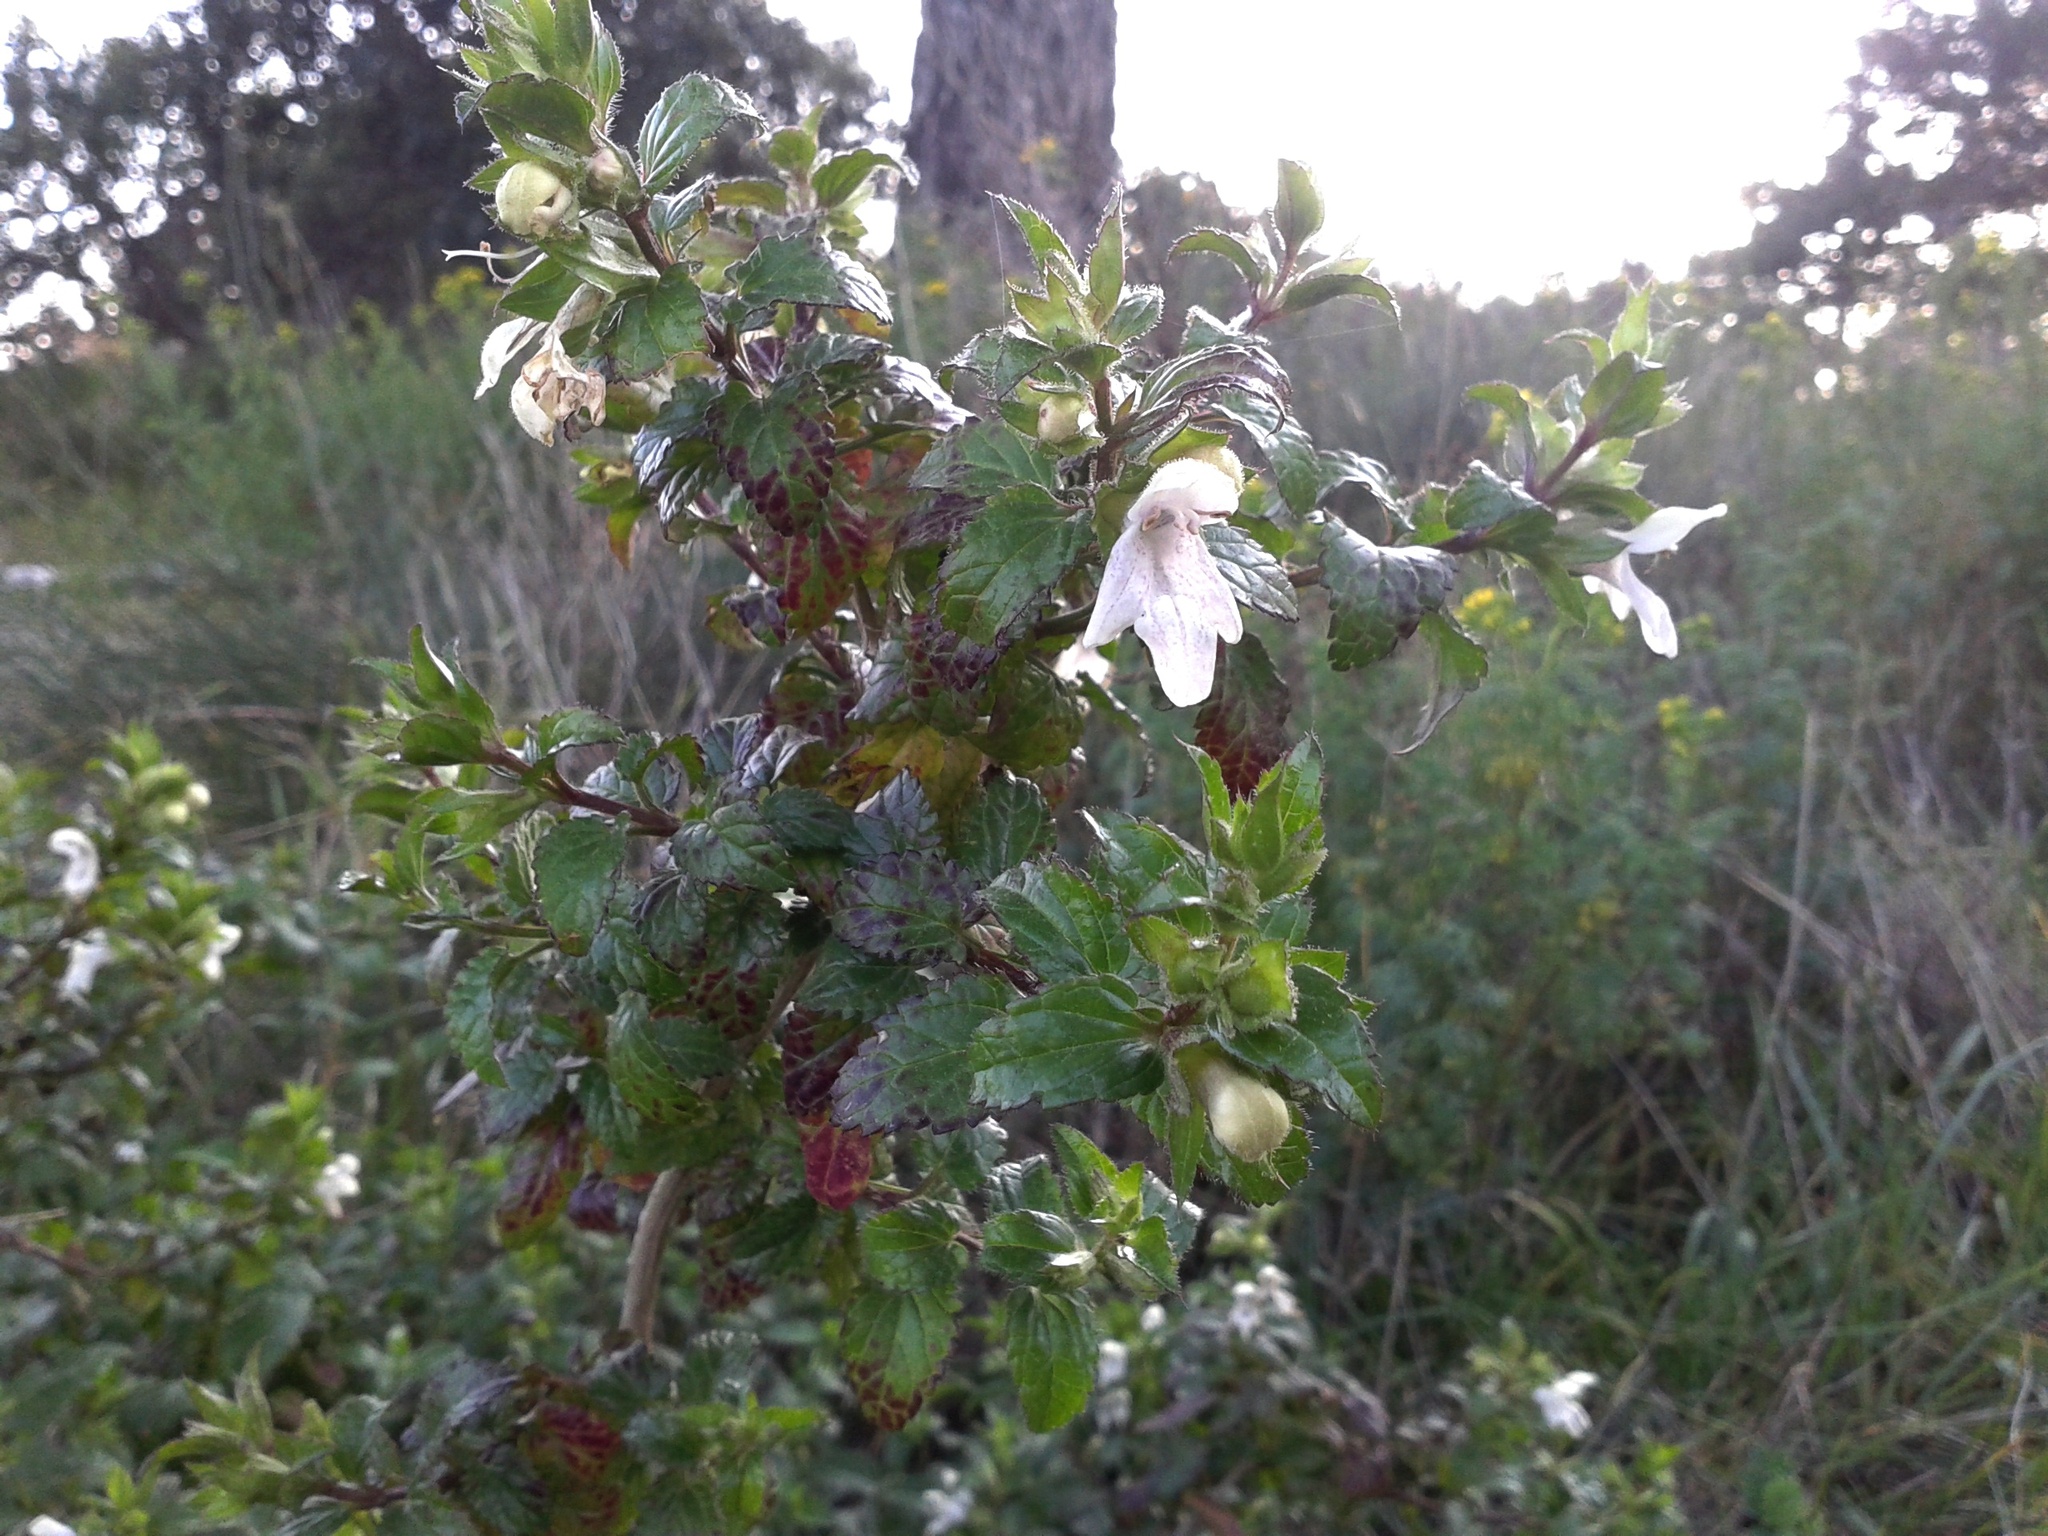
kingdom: Plantae
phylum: Tracheophyta
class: Magnoliopsida
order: Lamiales
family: Lamiaceae
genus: Prasium
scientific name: Prasium majus
